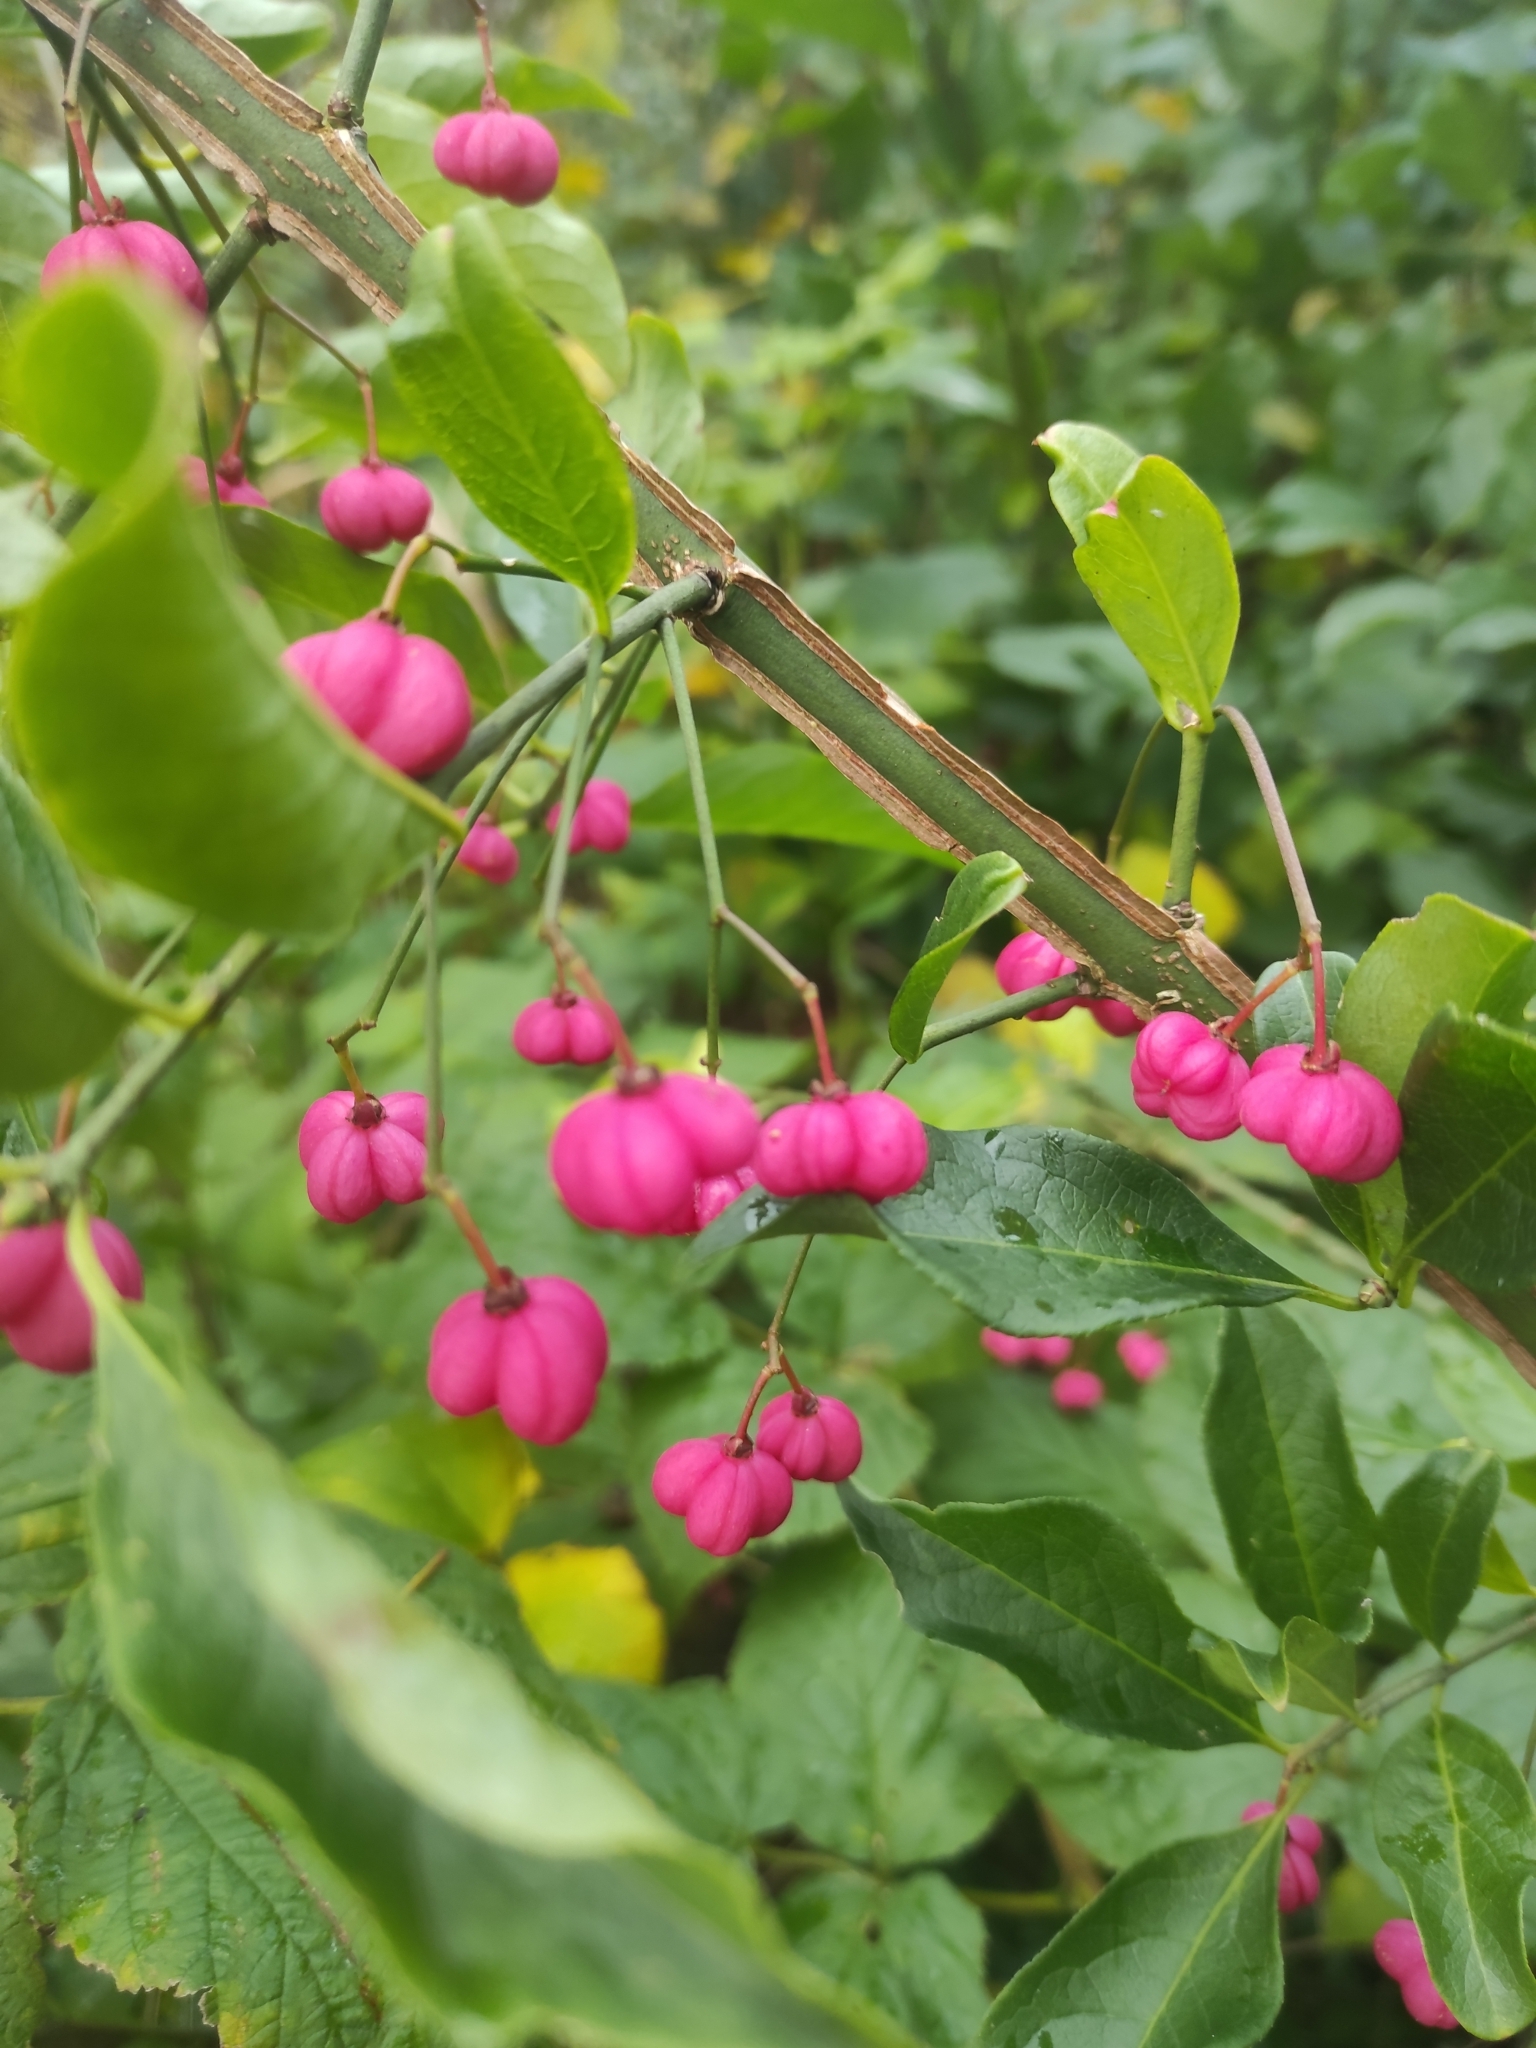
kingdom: Plantae
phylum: Tracheophyta
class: Magnoliopsida
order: Celastrales
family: Celastraceae
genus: Euonymus
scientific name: Euonymus europaeus
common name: Spindle
